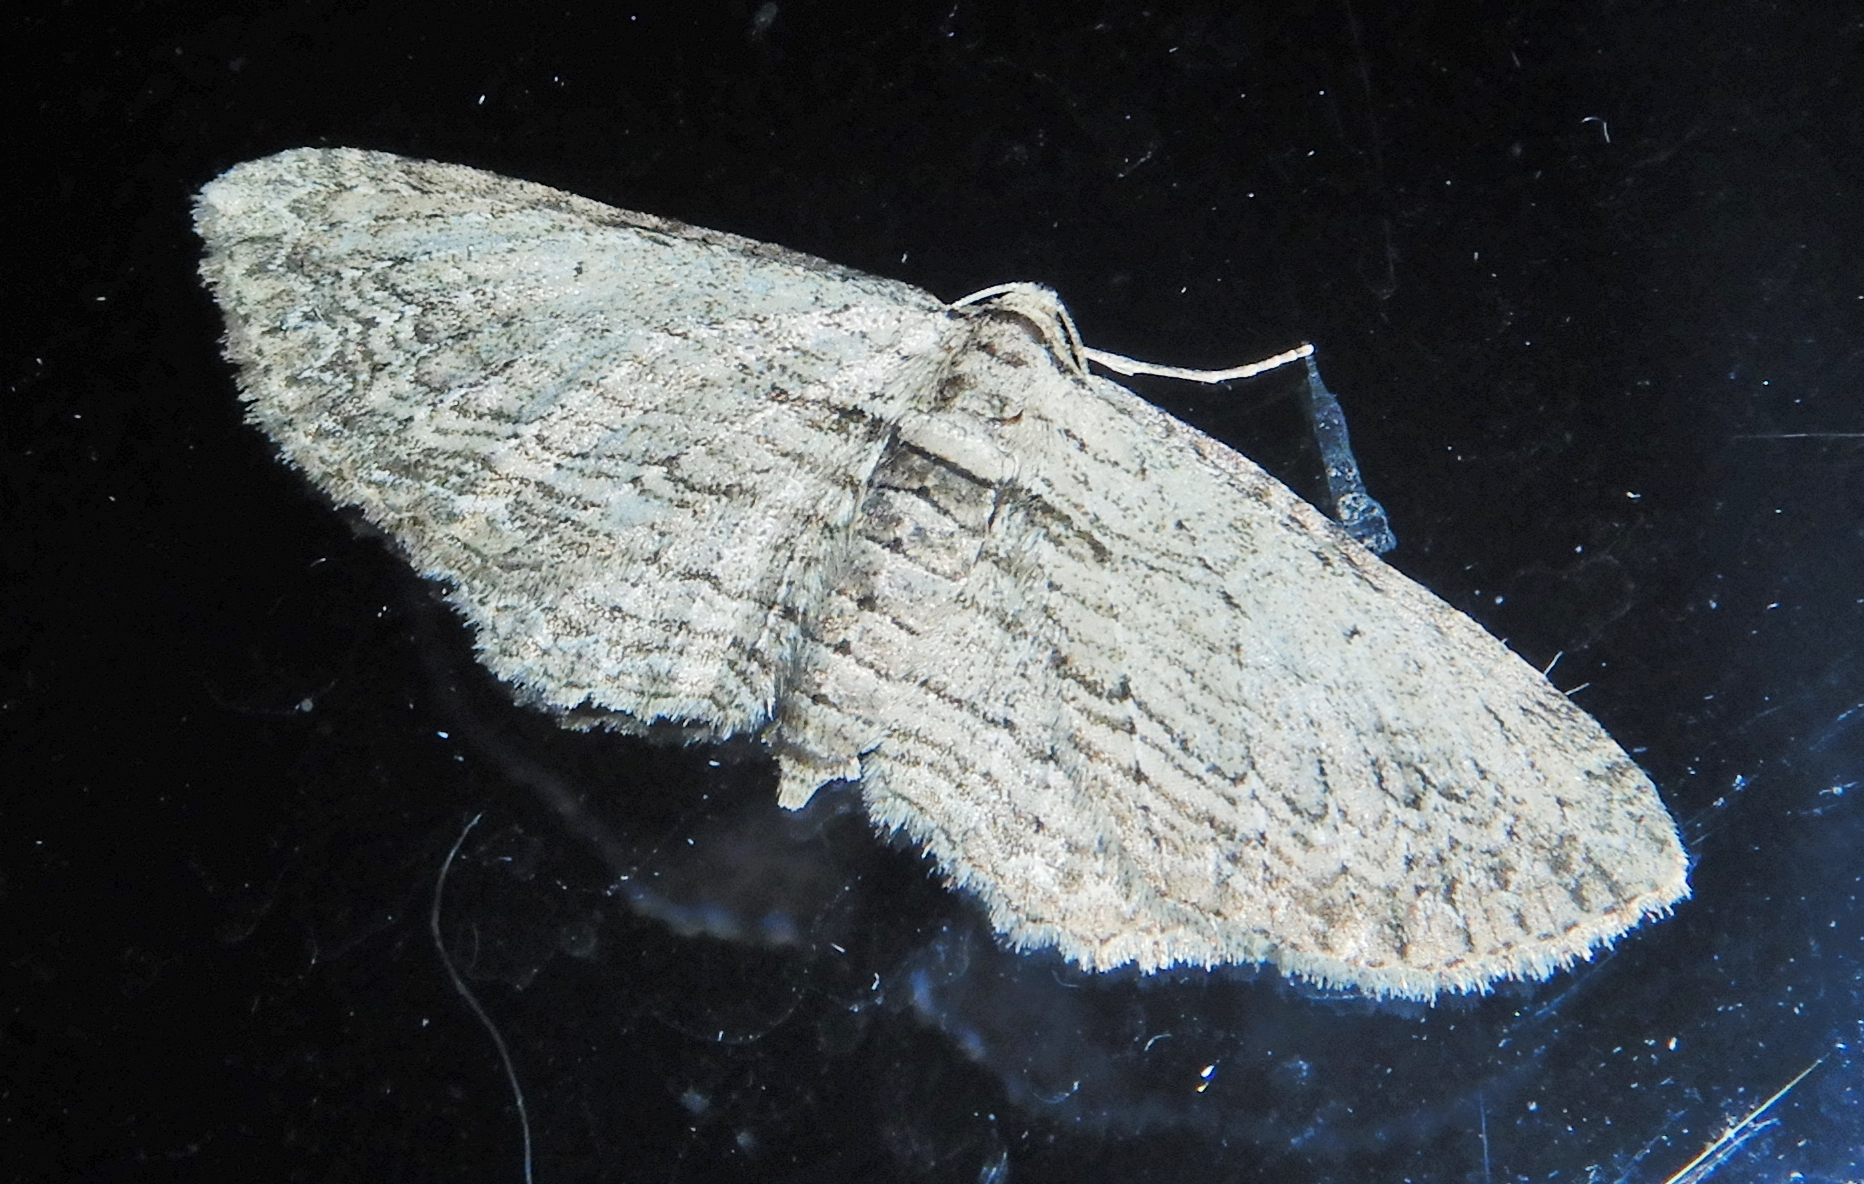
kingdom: Animalia
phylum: Arthropoda
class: Insecta
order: Lepidoptera
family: Geometridae
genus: Horisme
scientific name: Horisme intestinata
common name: Brown bark carpet
